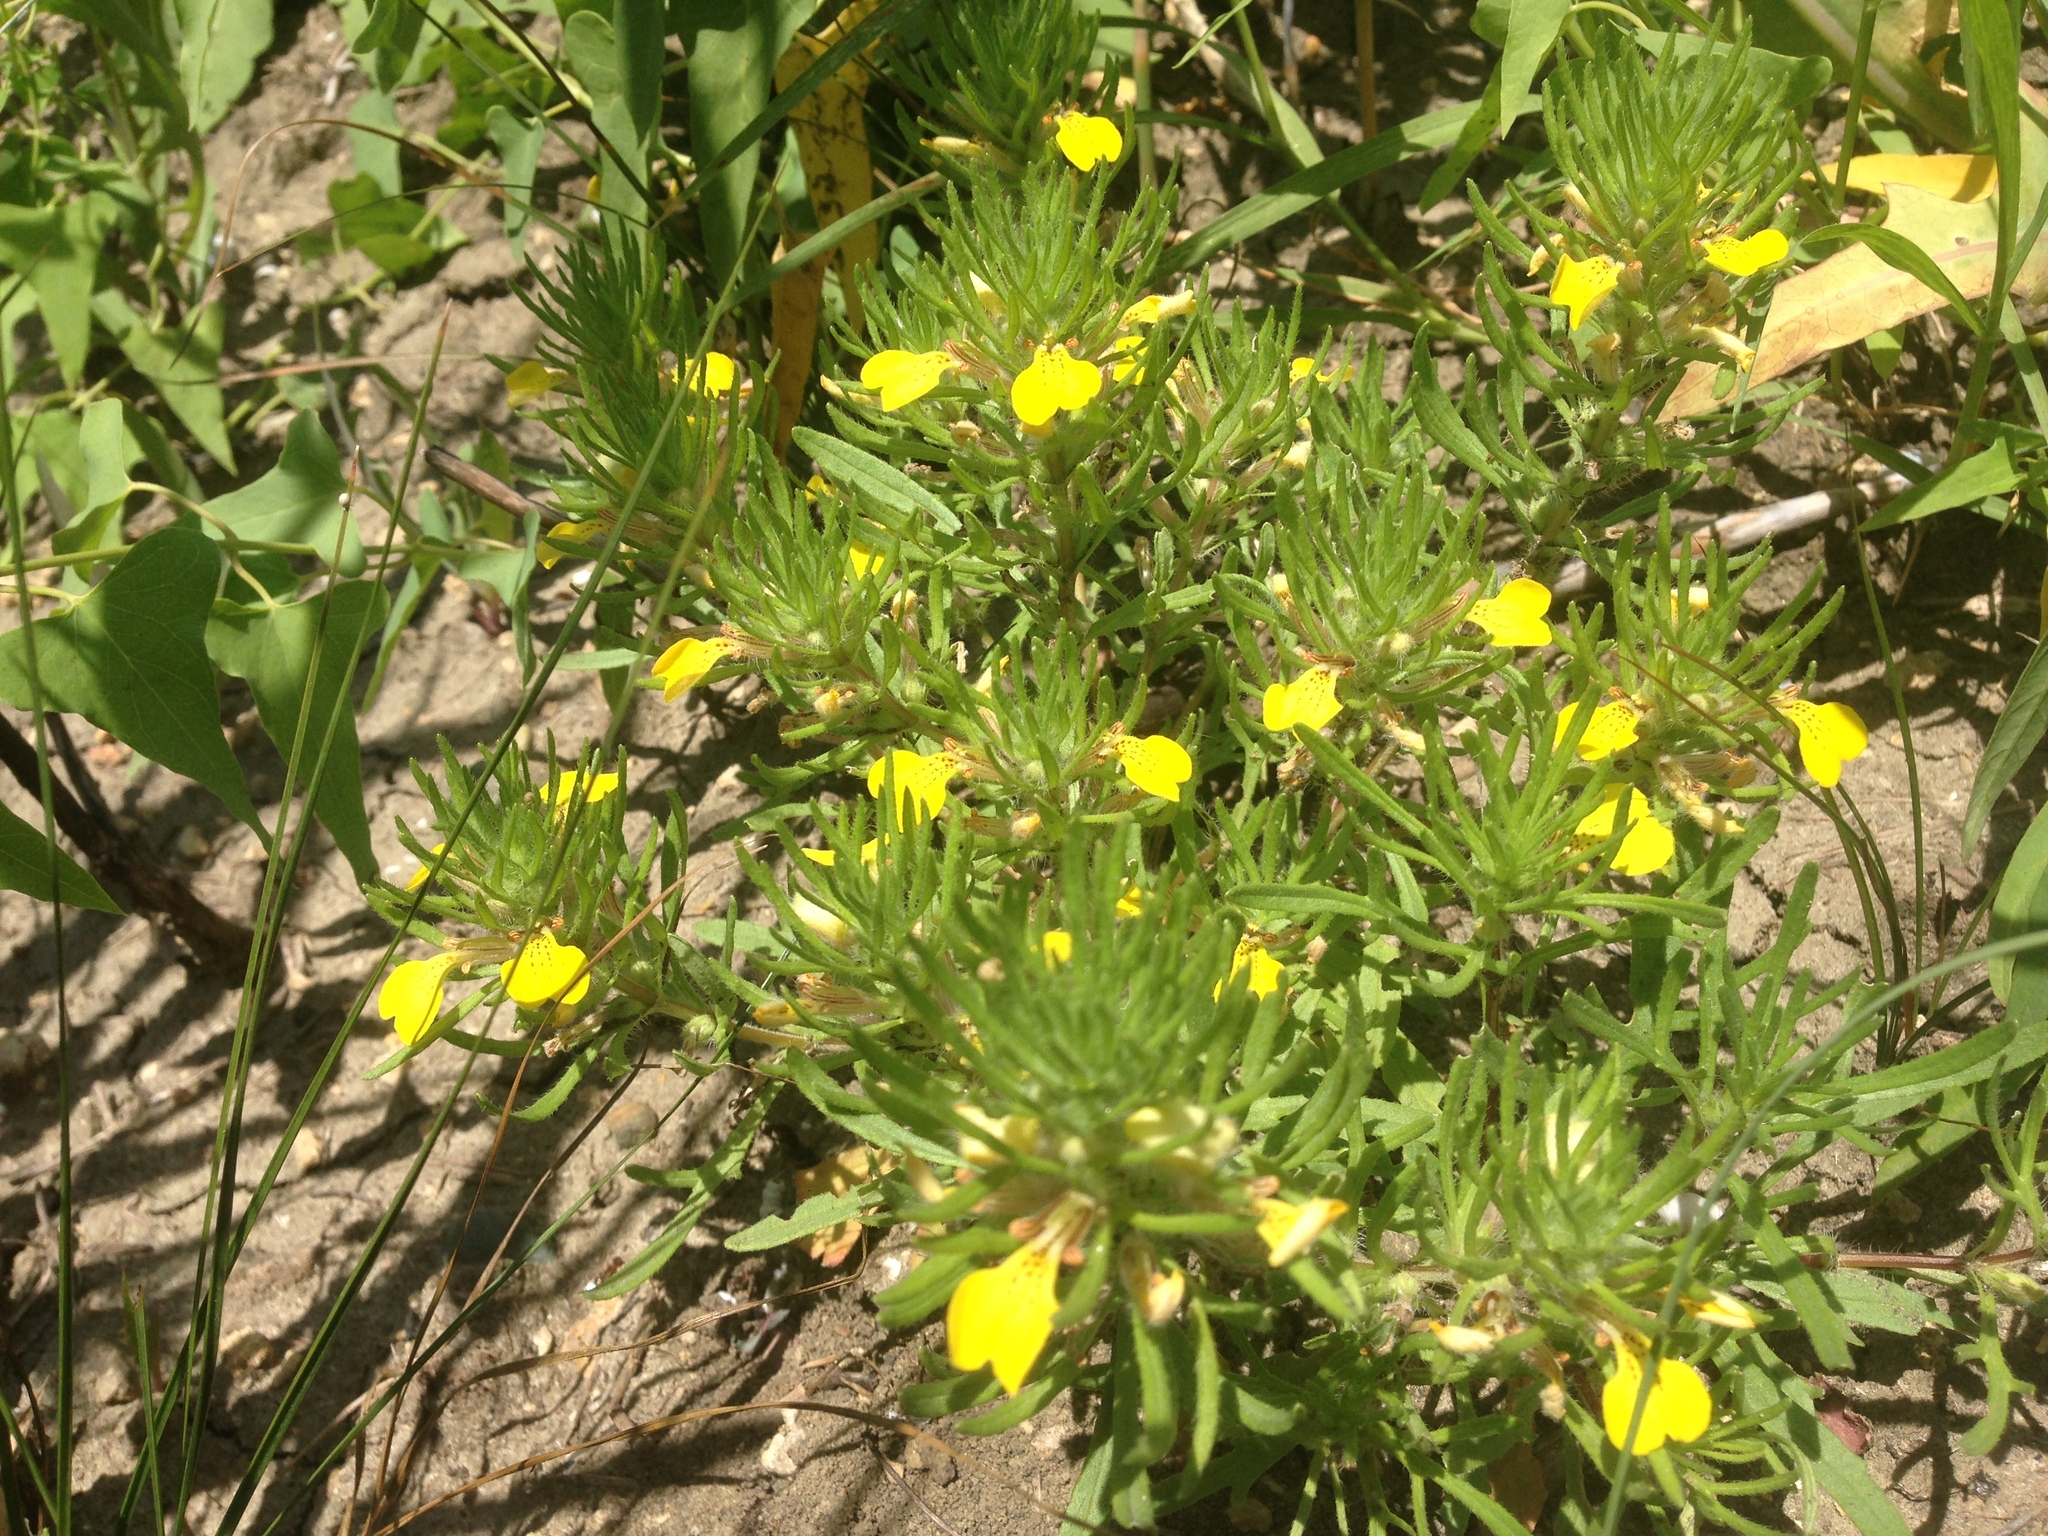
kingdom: Plantae
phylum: Tracheophyta
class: Magnoliopsida
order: Lamiales
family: Lamiaceae
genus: Ajuga
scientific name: Ajuga chamaepitys
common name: Ground-pine
